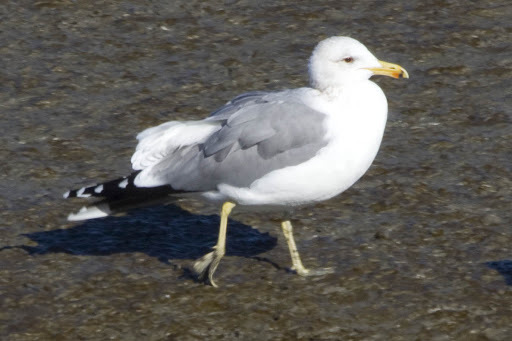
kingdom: Animalia
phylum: Chordata
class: Aves
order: Charadriiformes
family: Laridae
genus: Larus
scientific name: Larus californicus
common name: California gull
